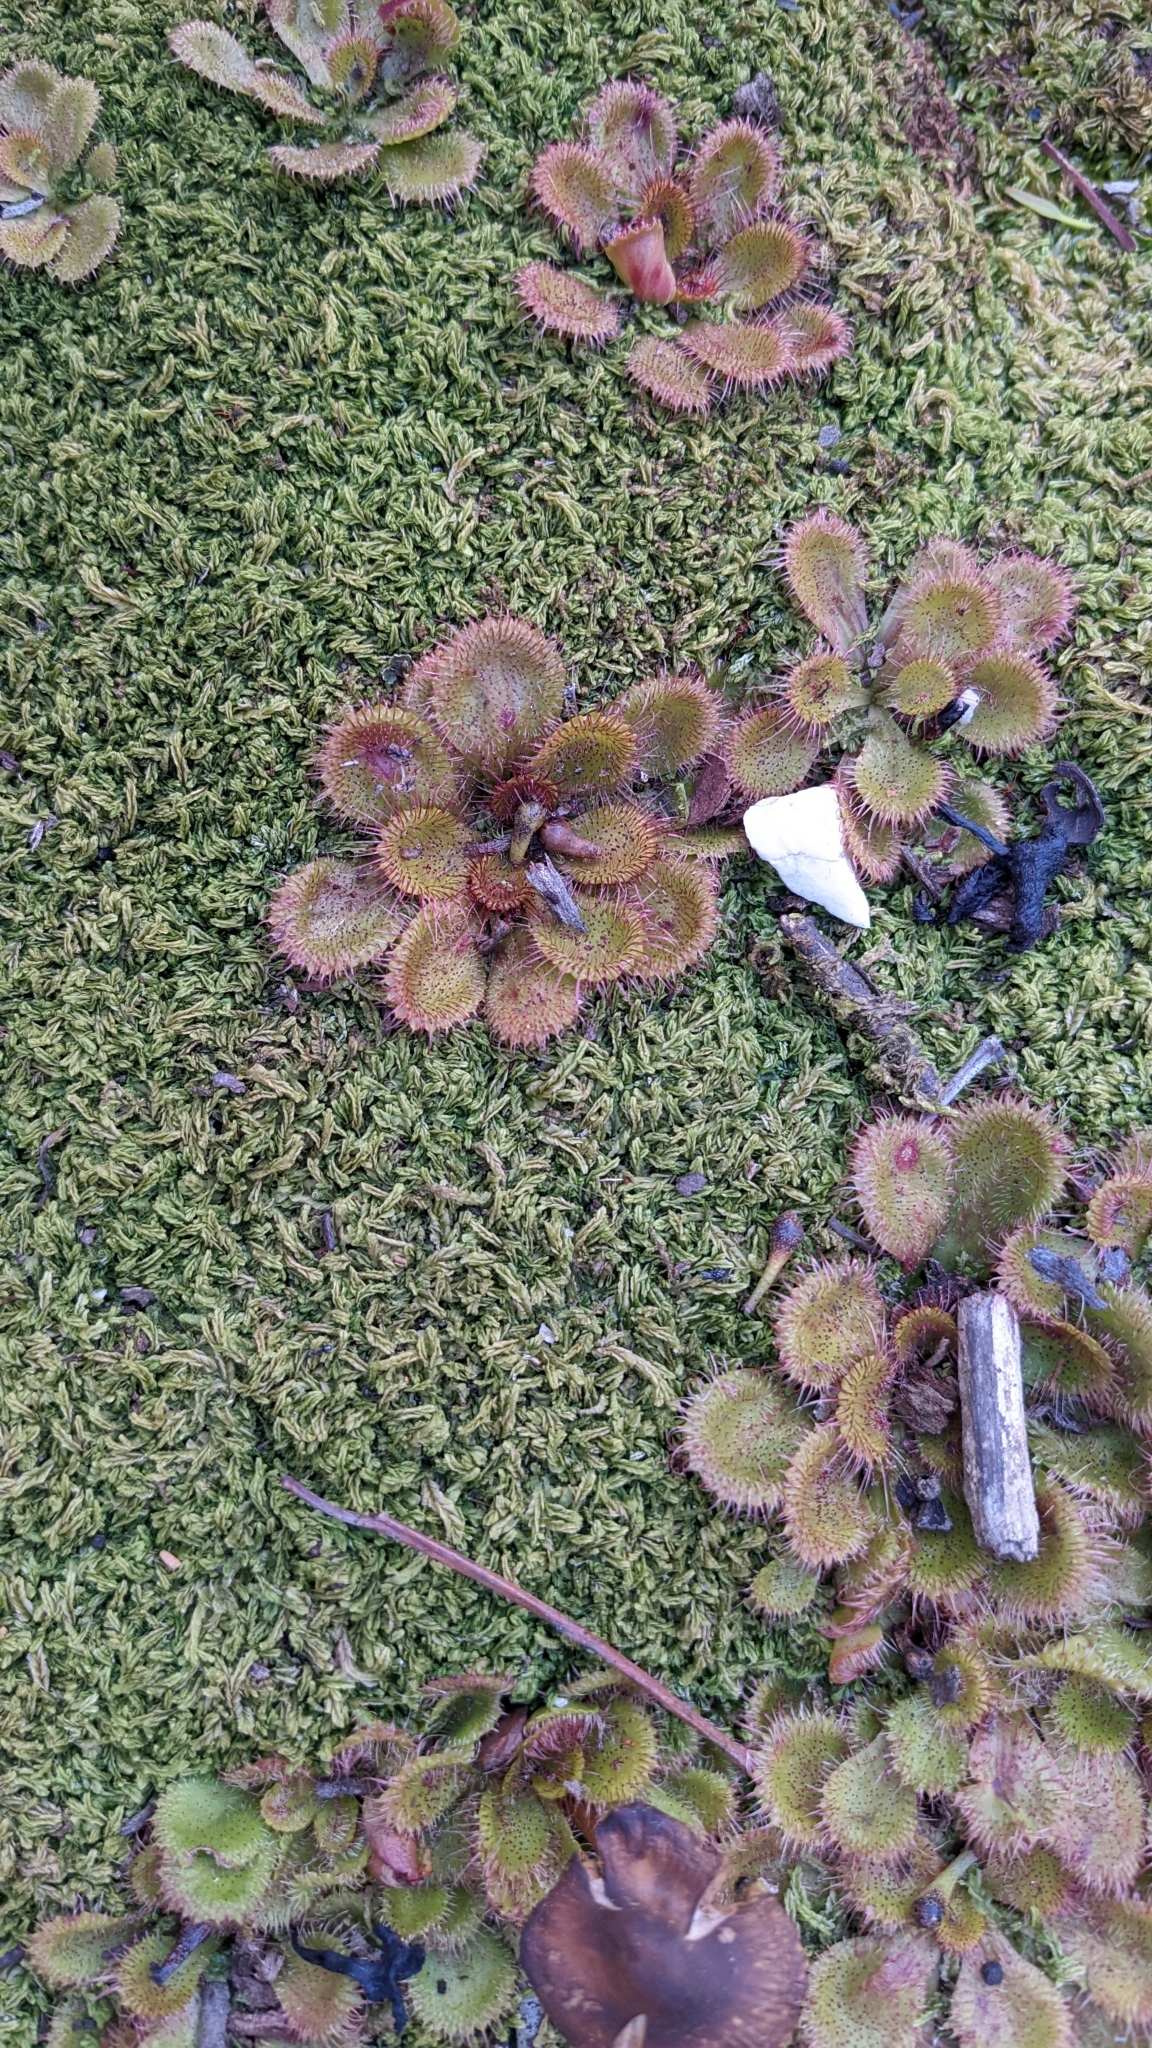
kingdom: Plantae
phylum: Tracheophyta
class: Magnoliopsida
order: Caryophyllales
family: Droseraceae
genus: Drosera
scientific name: Drosera aberrans
